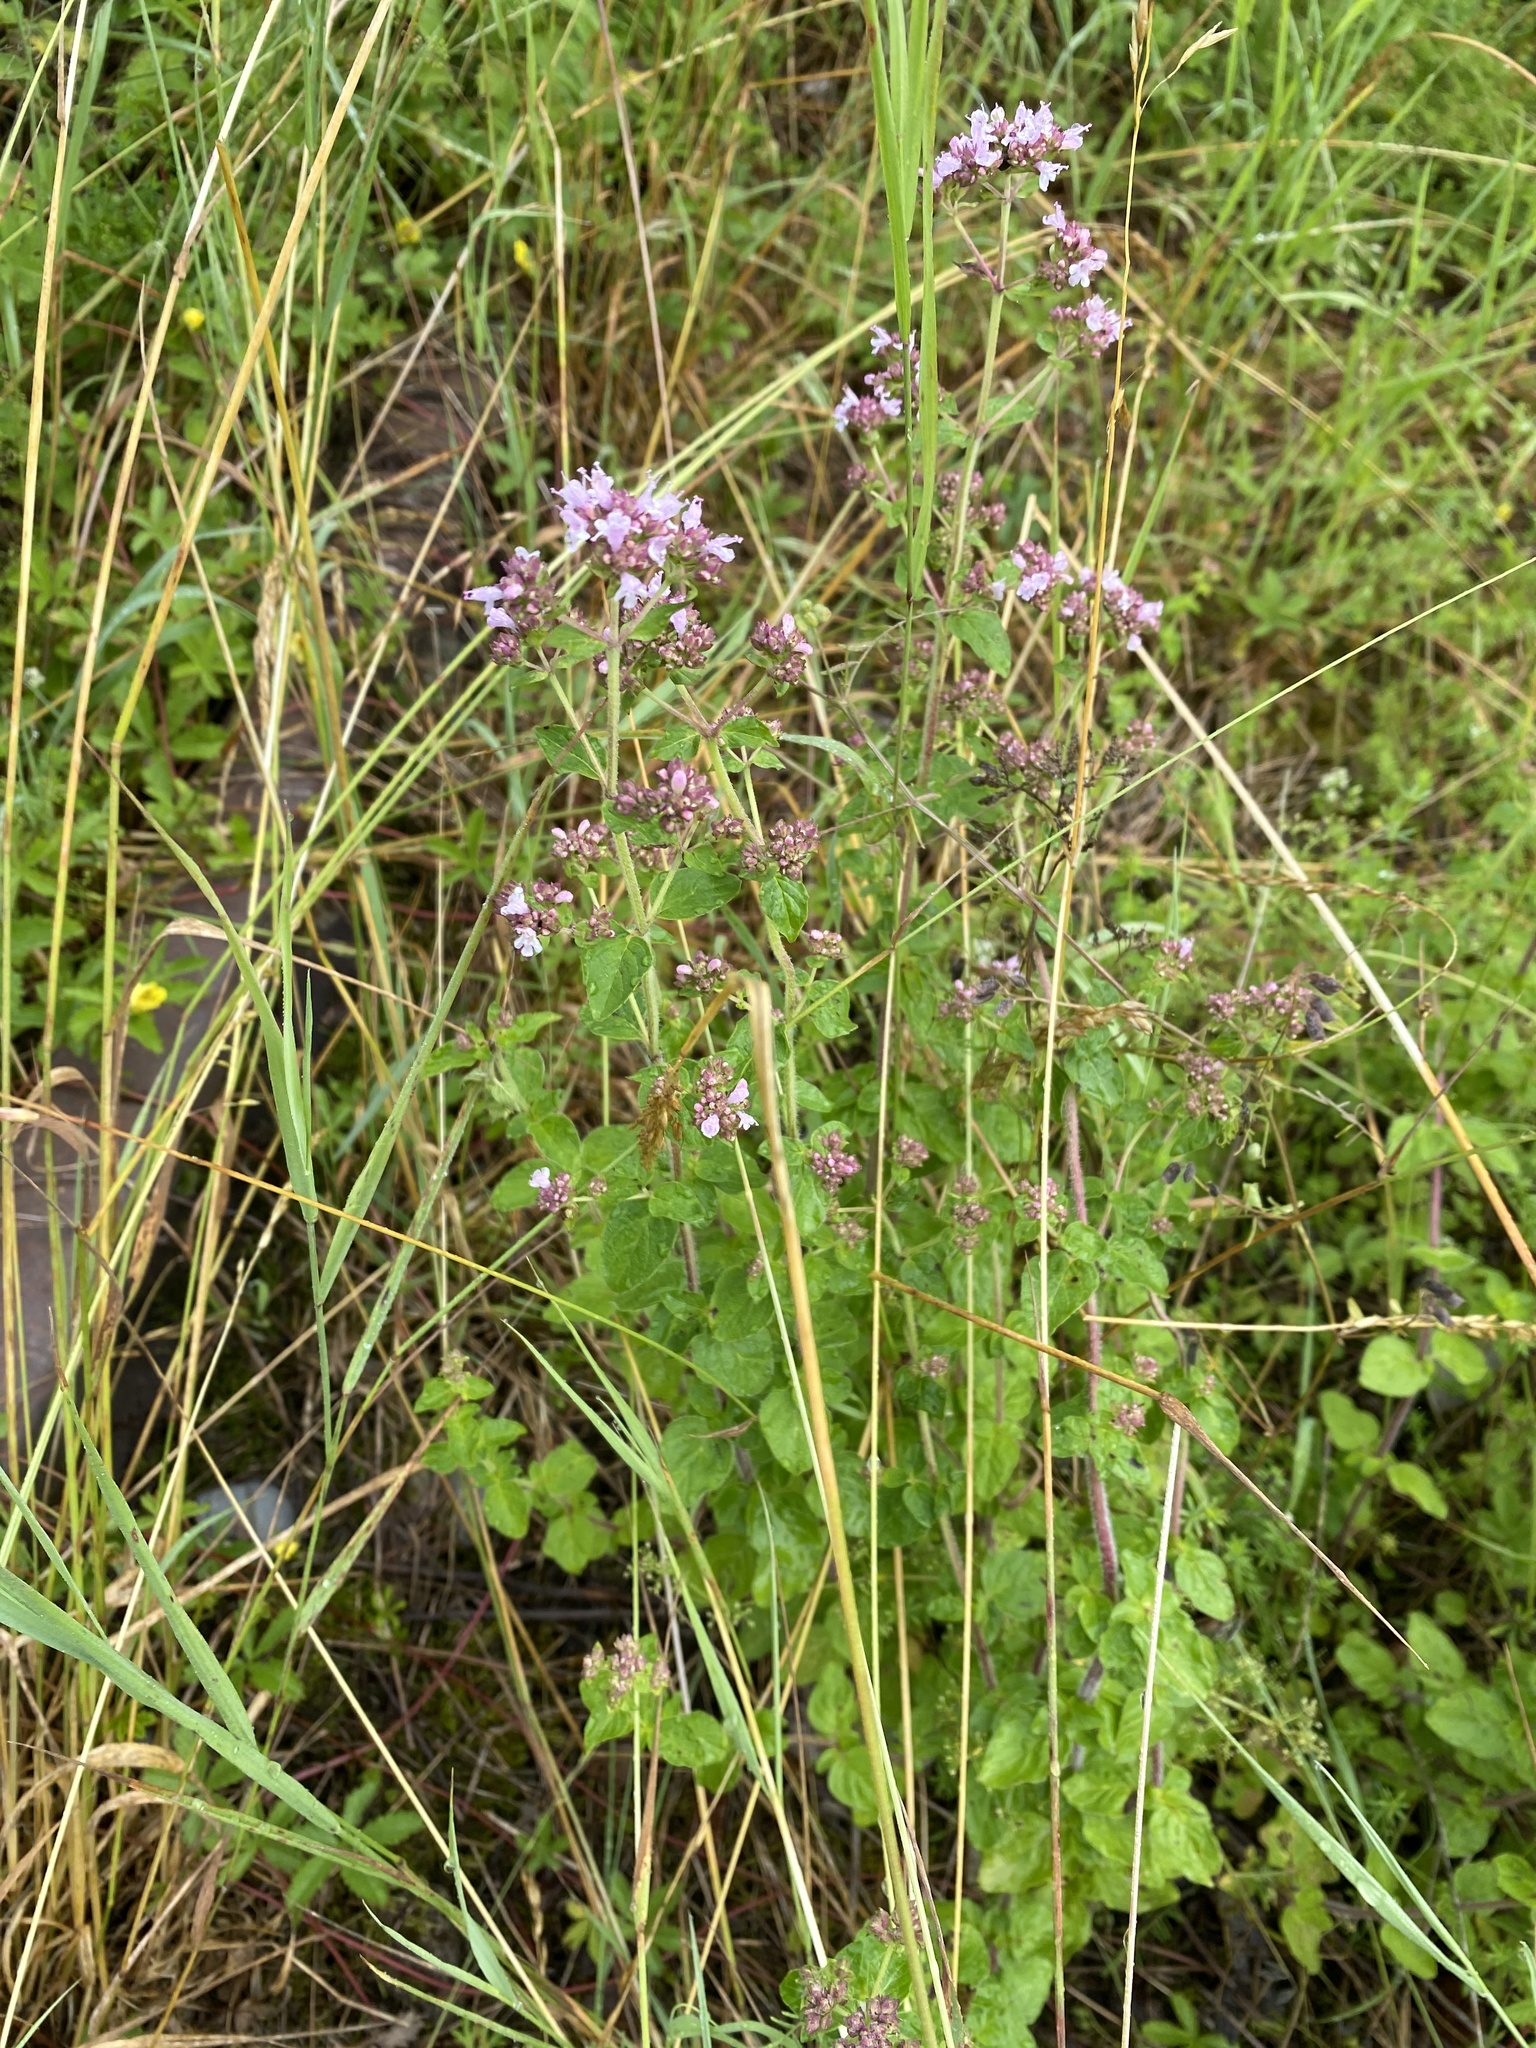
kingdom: Plantae
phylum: Tracheophyta
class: Magnoliopsida
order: Lamiales
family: Lamiaceae
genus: Origanum
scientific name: Origanum vulgare
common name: Wild marjoram
